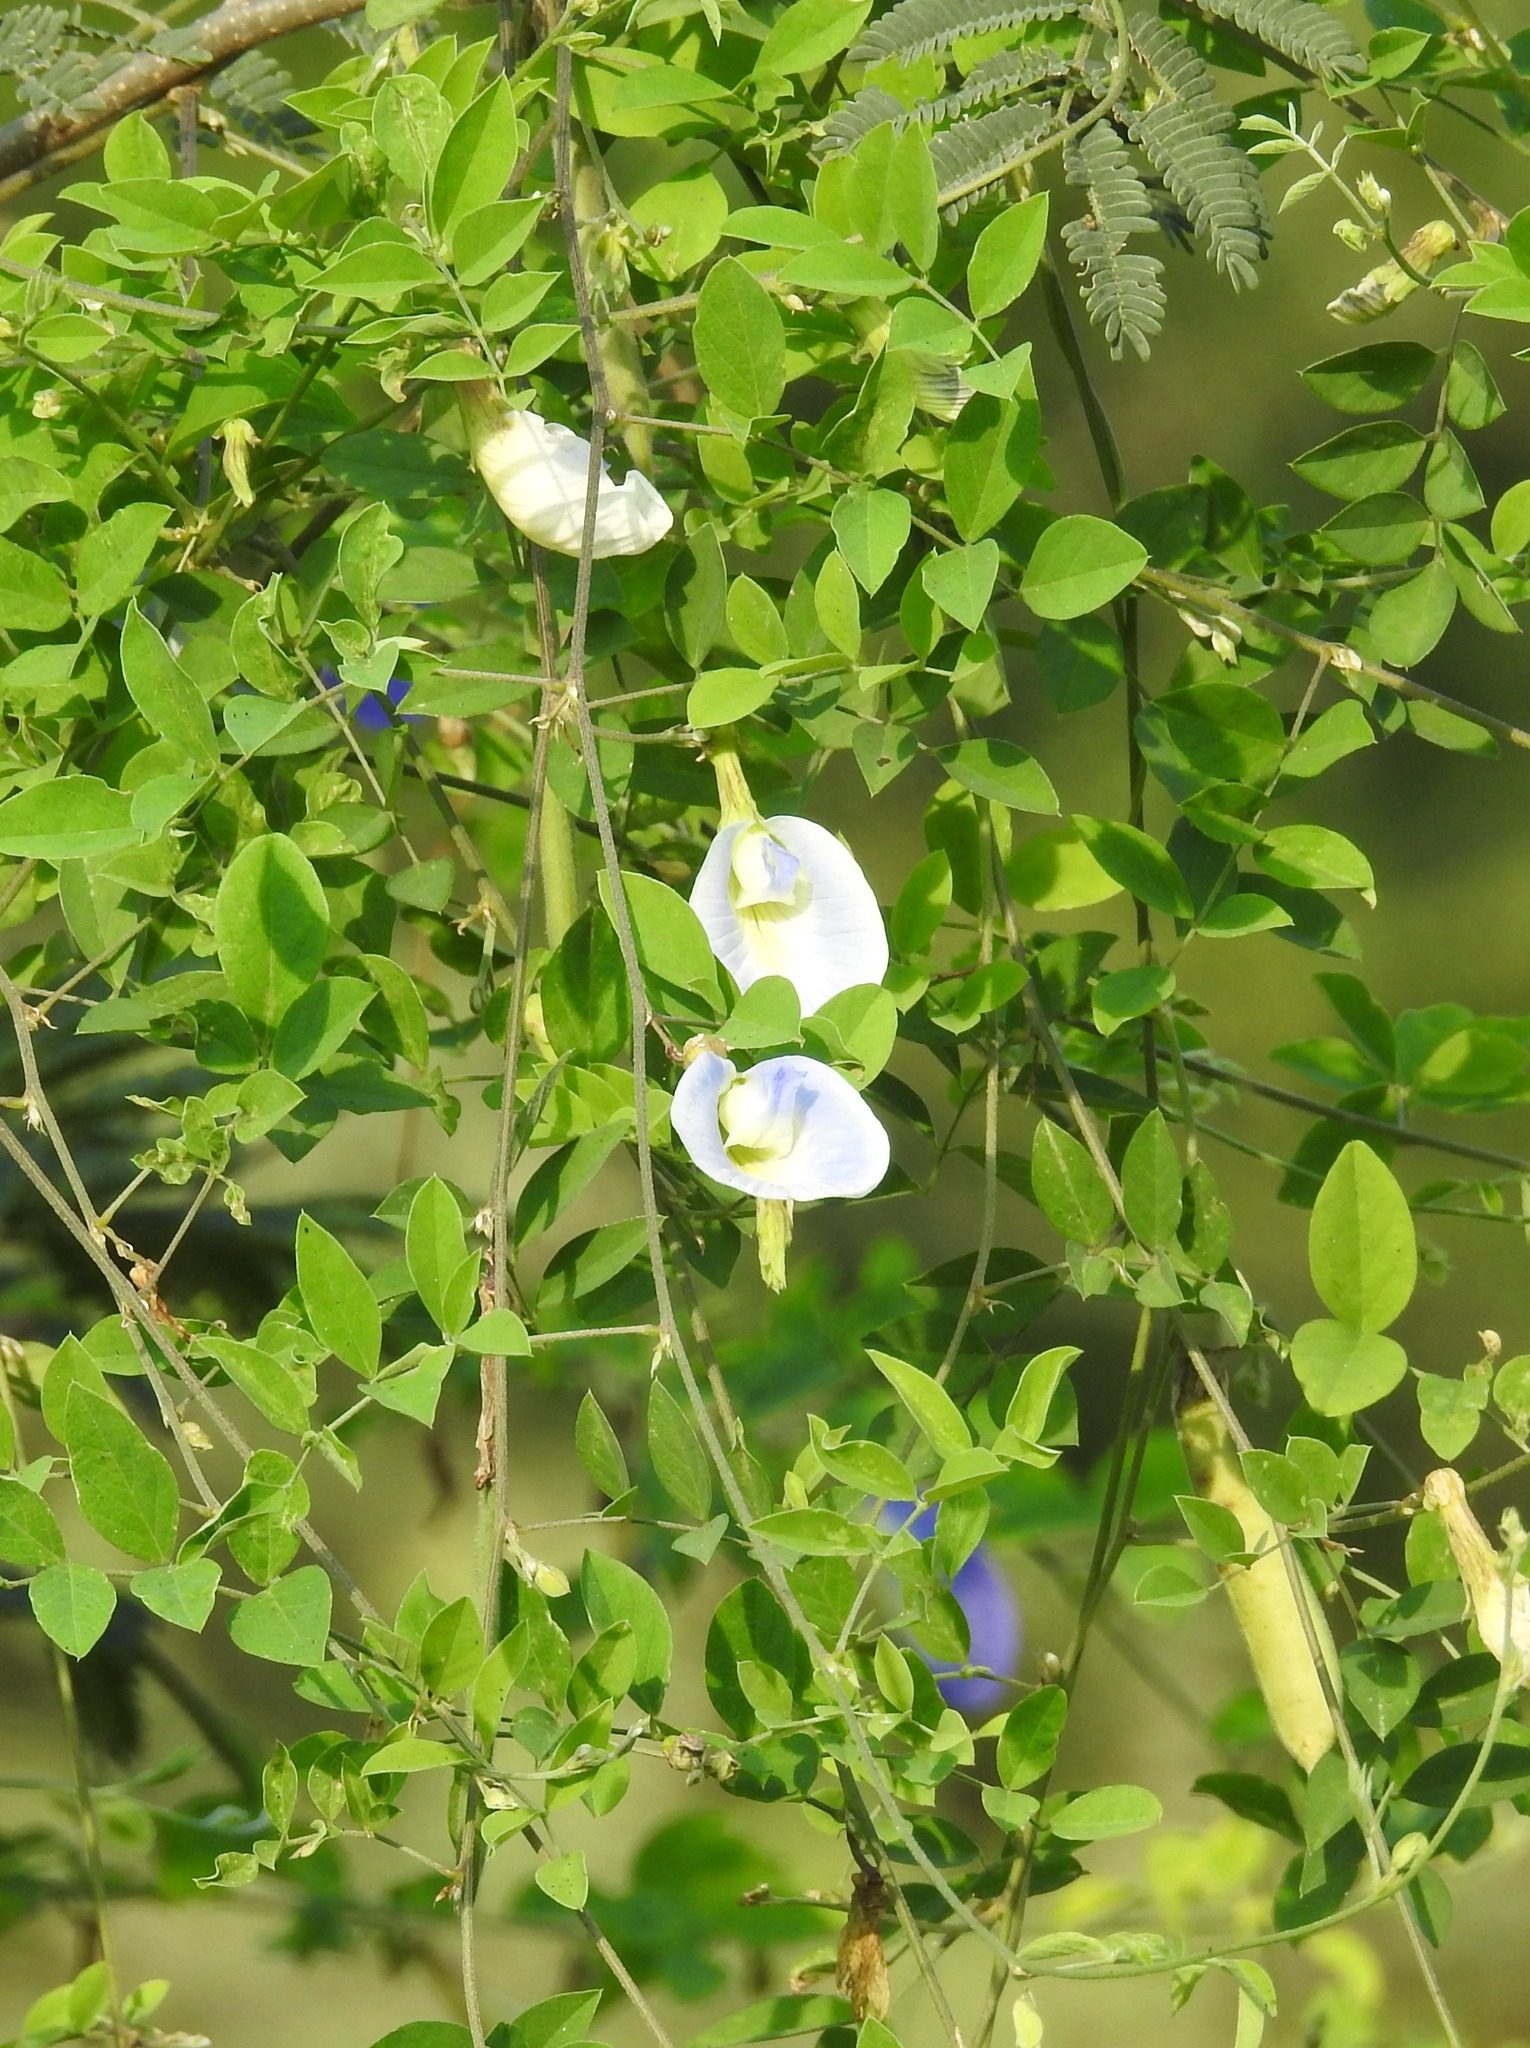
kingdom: Plantae
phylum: Tracheophyta
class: Magnoliopsida
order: Fabales
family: Fabaceae
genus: Clitoria
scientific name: Clitoria ternatea
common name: Asian pigeonwings
